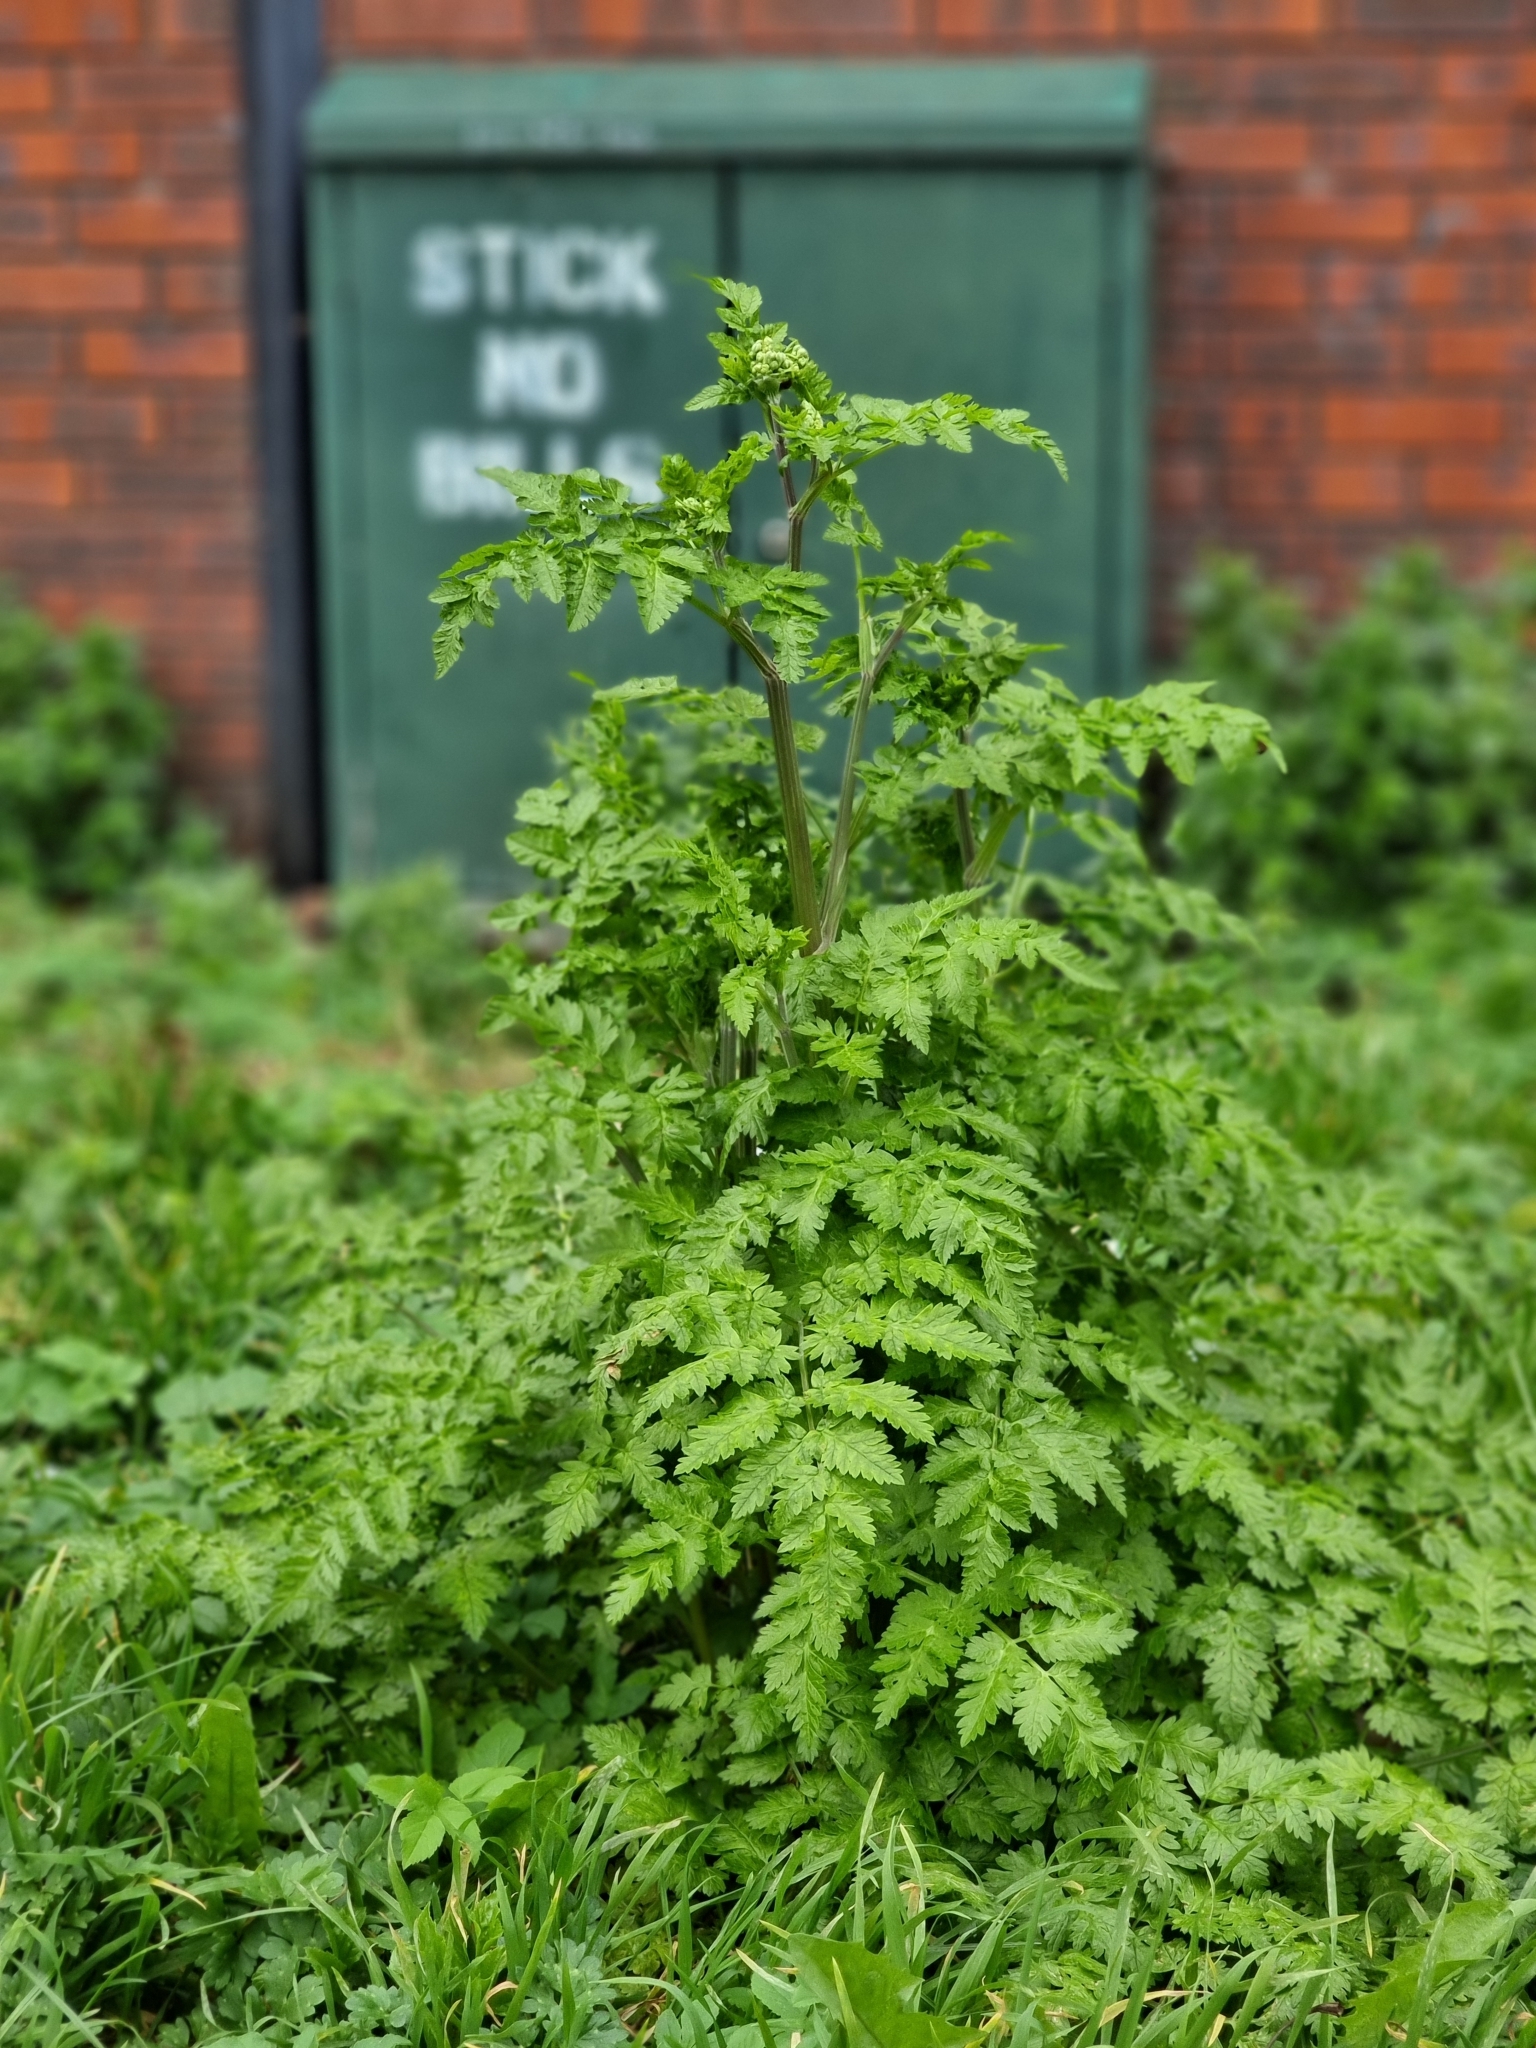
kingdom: Plantae
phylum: Tracheophyta
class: Magnoliopsida
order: Apiales
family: Apiaceae
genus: Anthriscus
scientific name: Anthriscus sylvestris
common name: Cow parsley
